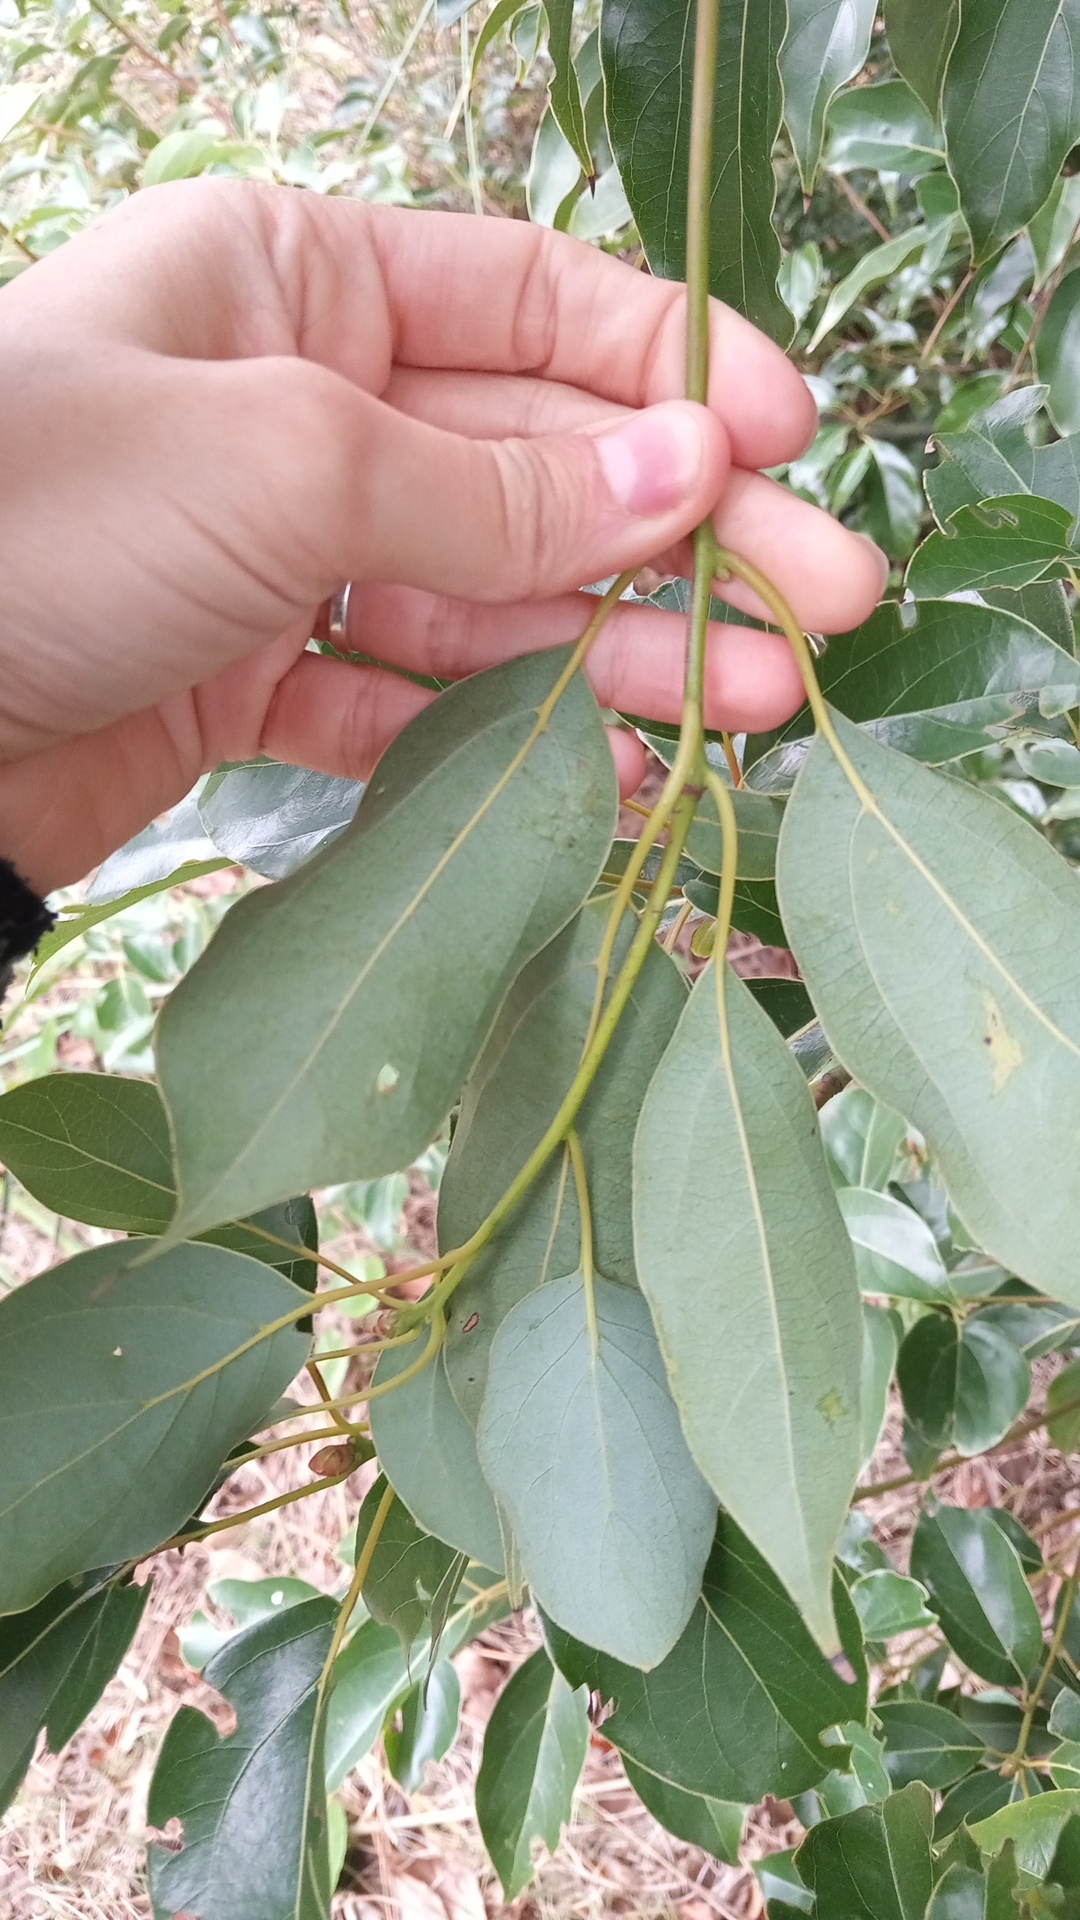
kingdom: Plantae
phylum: Tracheophyta
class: Magnoliopsida
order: Laurales
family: Lauraceae
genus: Cinnamomum
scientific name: Cinnamomum camphora
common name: Camphortree
